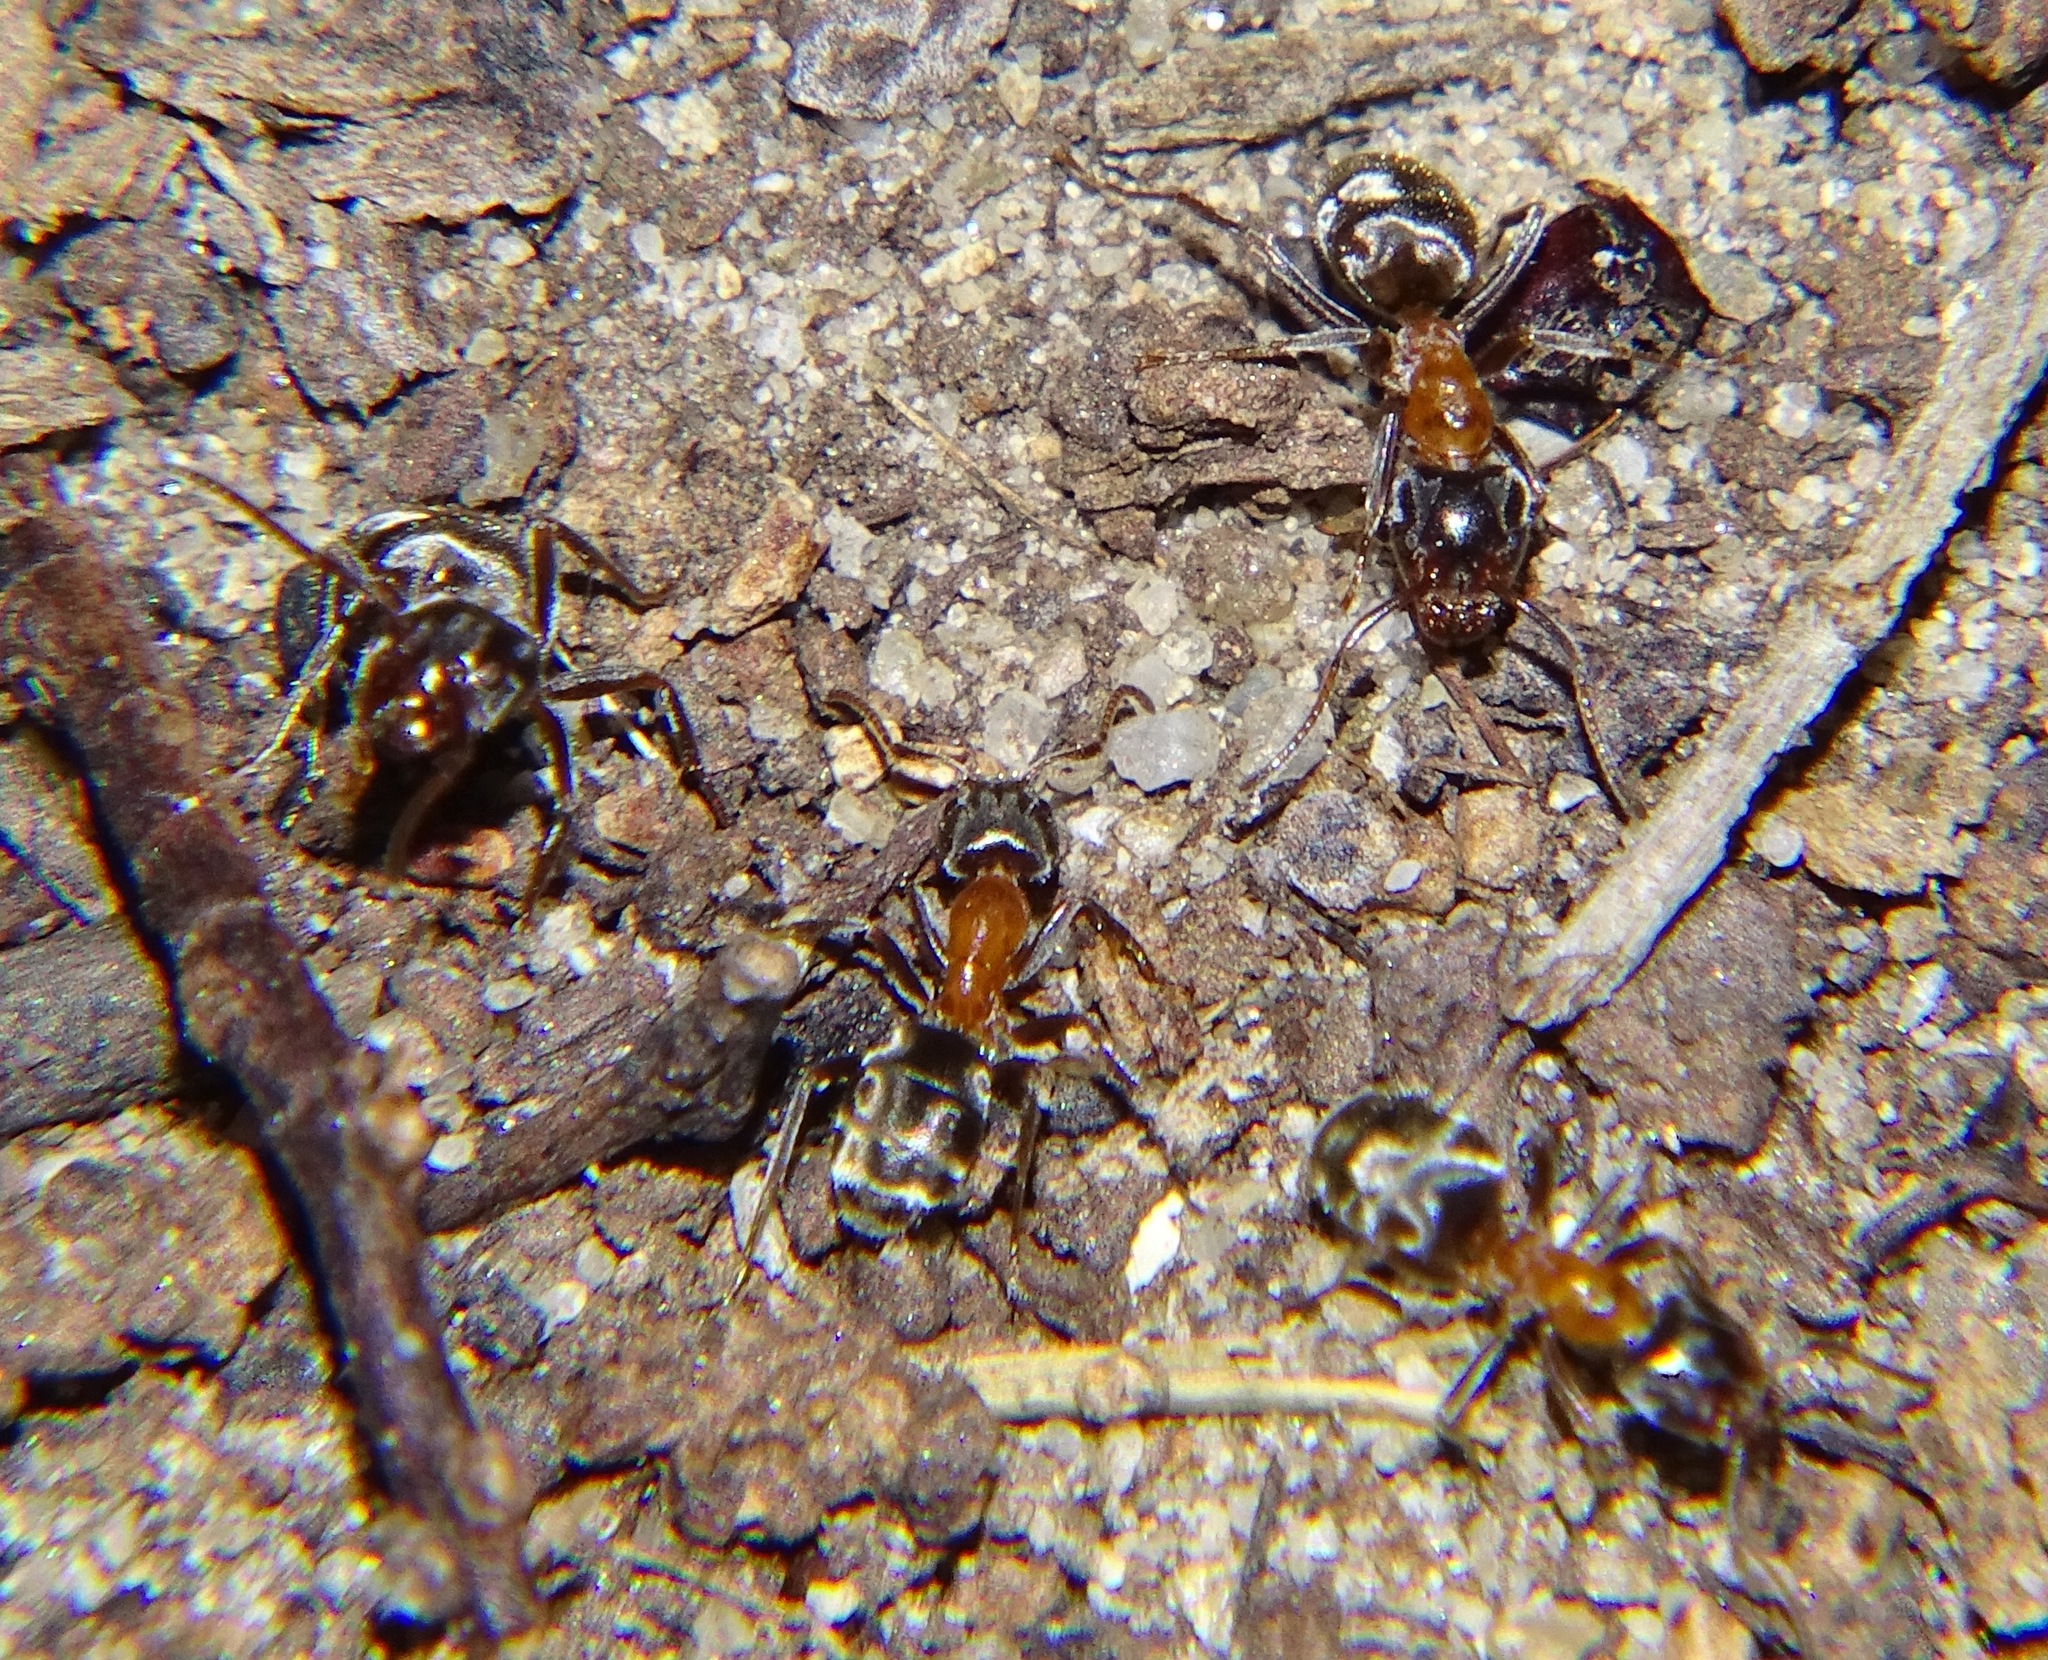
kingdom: Animalia
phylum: Arthropoda
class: Insecta
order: Hymenoptera
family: Formicidae
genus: Liometopum
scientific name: Liometopum occidentale
